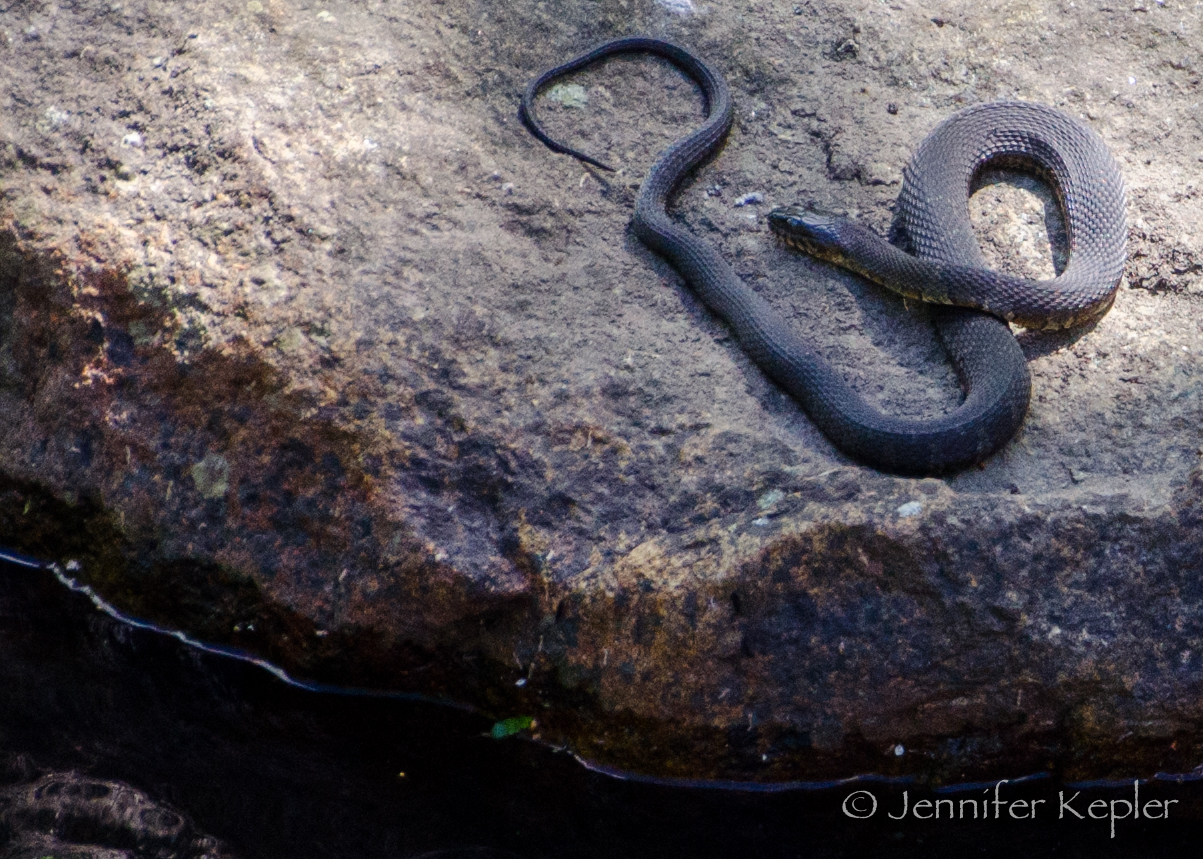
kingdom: Animalia
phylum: Chordata
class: Squamata
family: Colubridae
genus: Nerodia
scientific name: Nerodia sipedon
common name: Northern water snake
